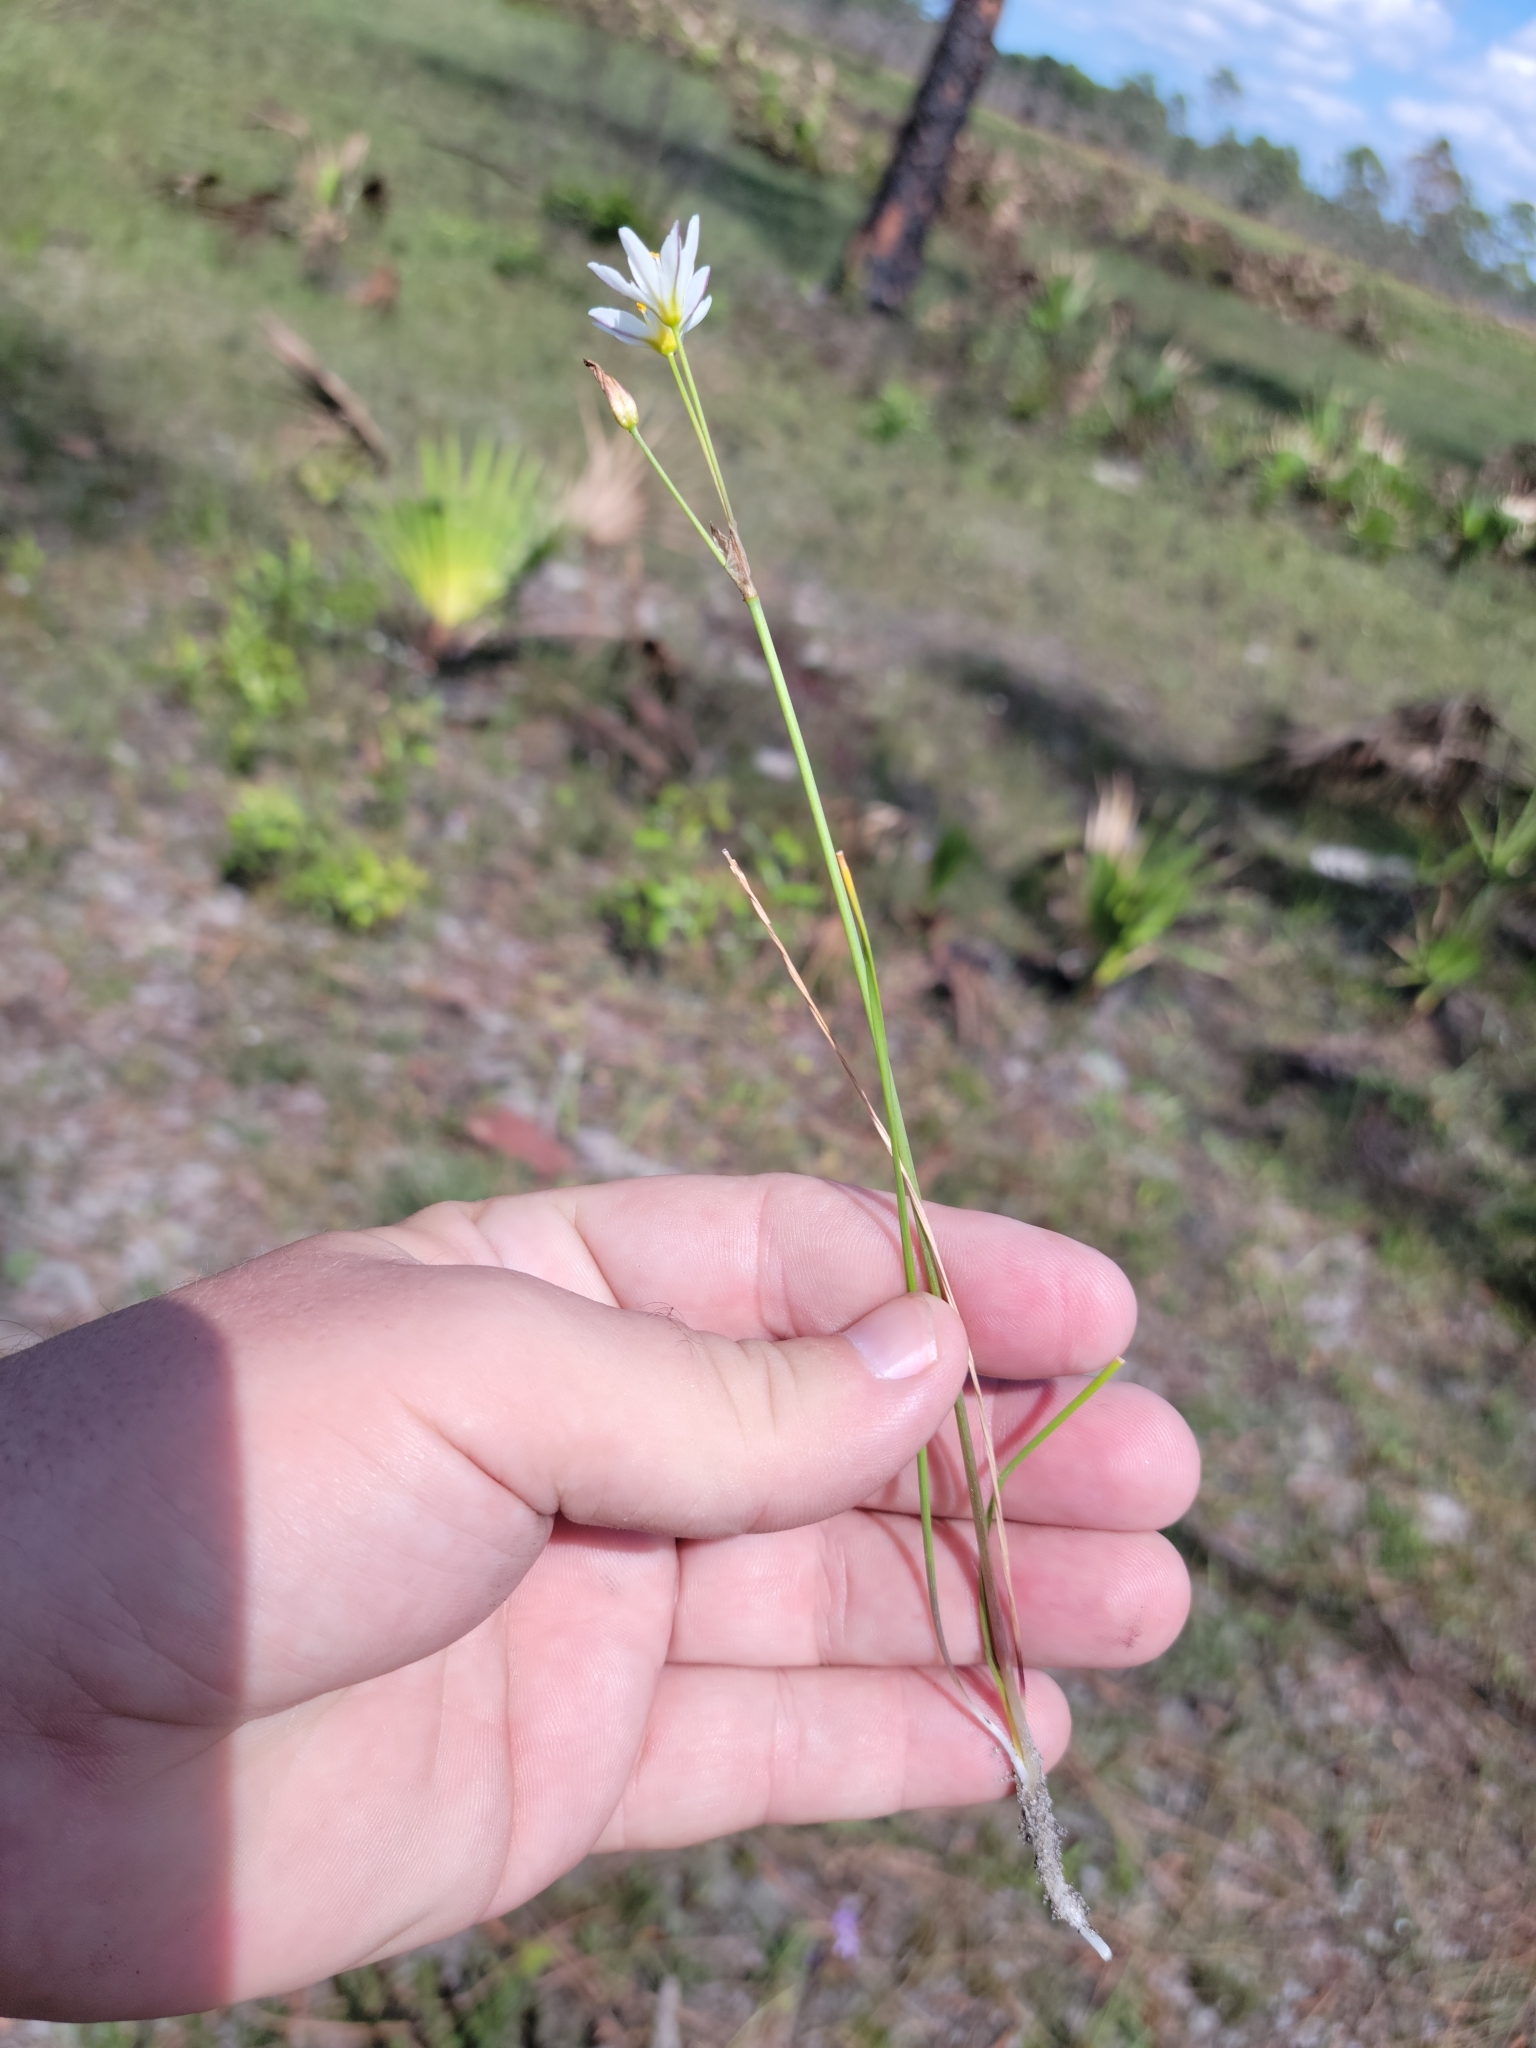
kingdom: Plantae
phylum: Tracheophyta
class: Liliopsida
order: Asparagales
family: Amaryllidaceae
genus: Nothoscordum
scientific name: Nothoscordum bivalve
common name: Crow-poison
